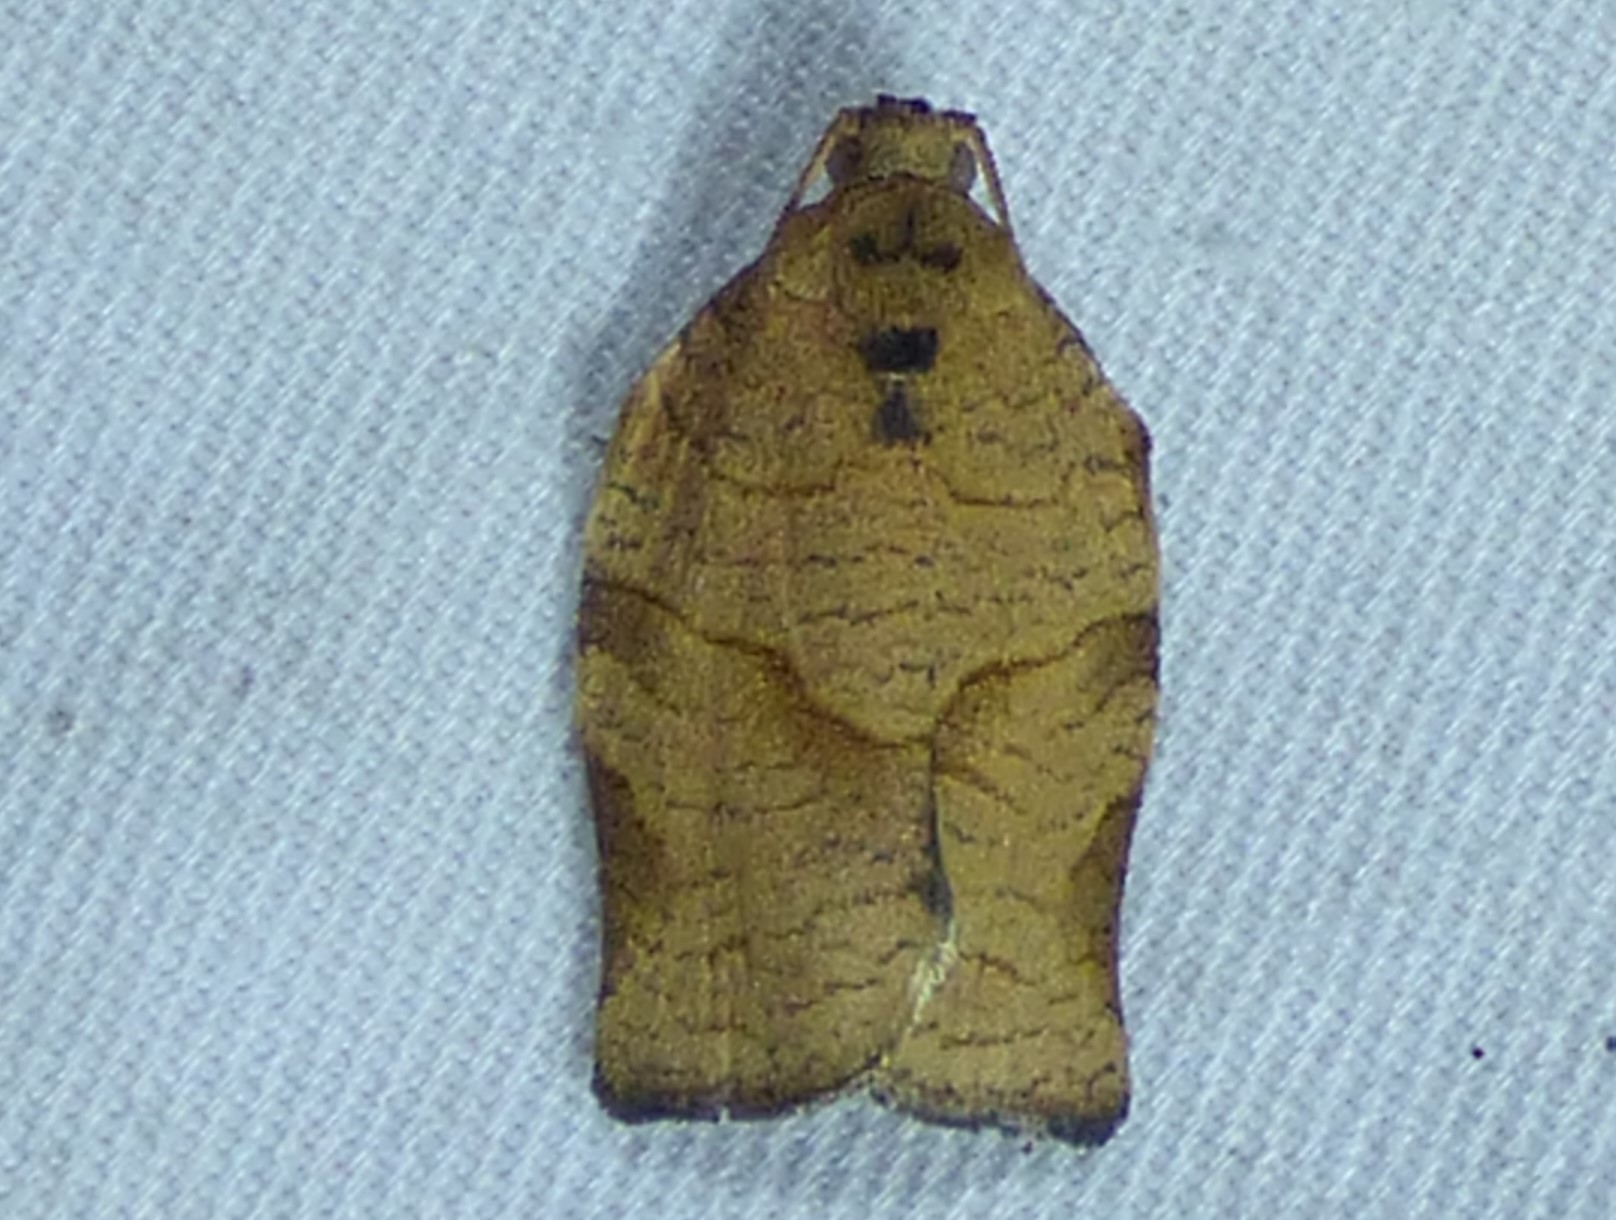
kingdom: Animalia
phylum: Arthropoda
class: Insecta
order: Lepidoptera
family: Tortricidae
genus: Choristoneura
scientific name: Choristoneura rosaceana
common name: Oblique-banded leafroller moth
